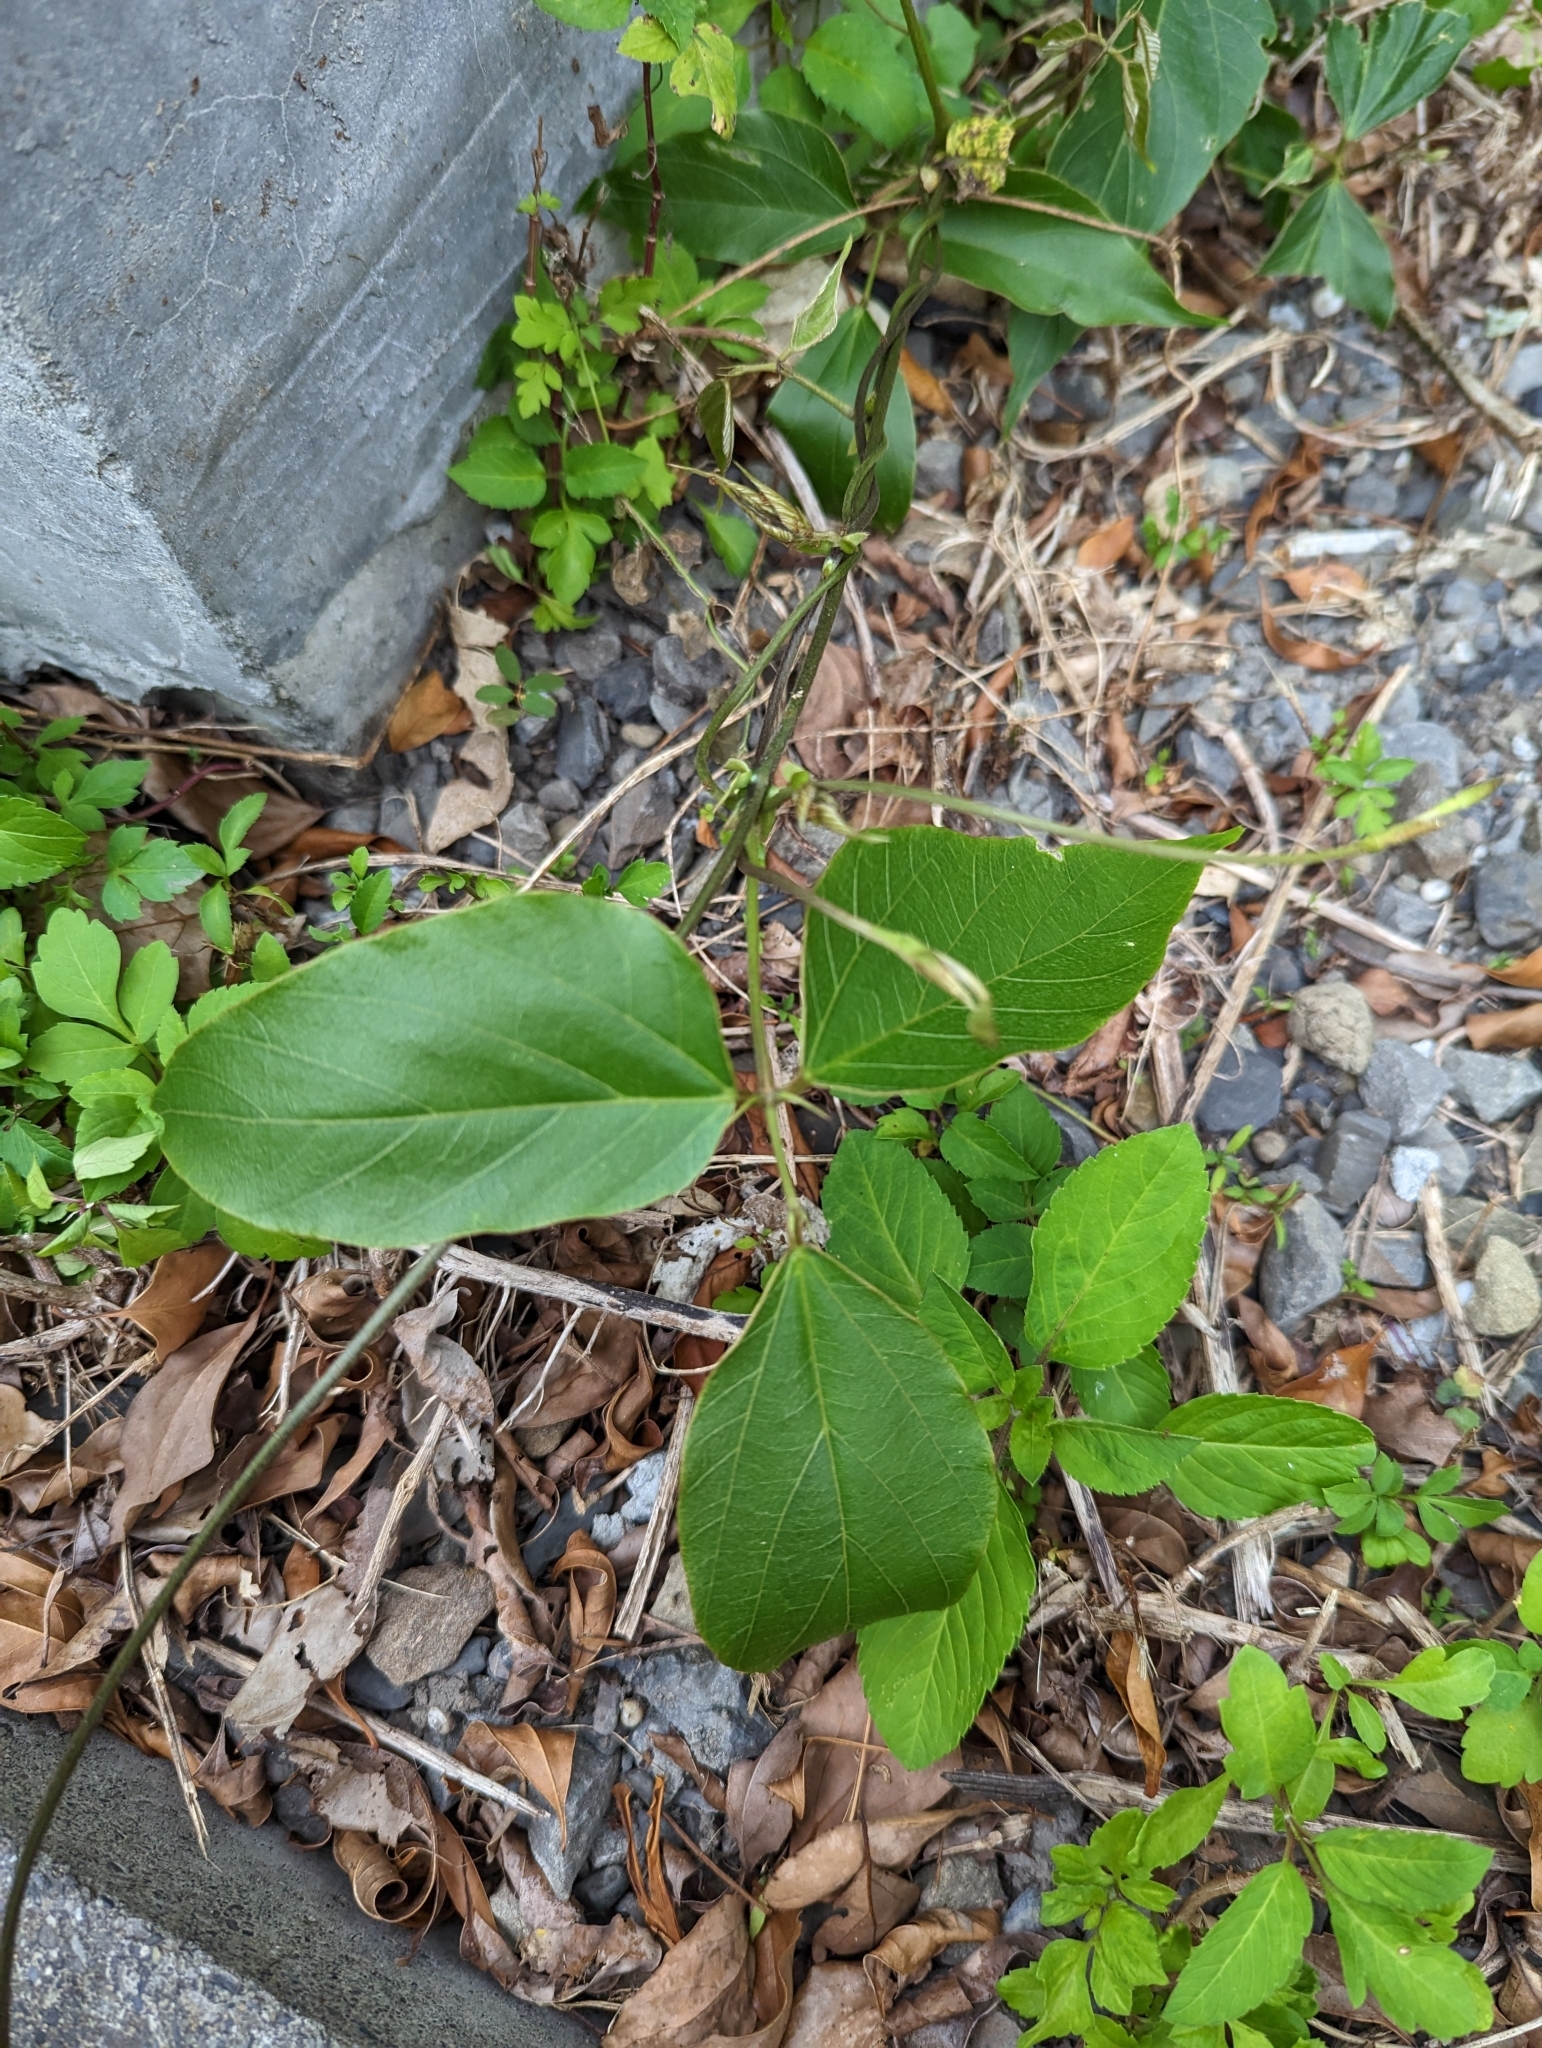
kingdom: Plantae
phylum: Tracheophyta
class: Magnoliopsida
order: Fabales
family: Fabaceae
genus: Pueraria
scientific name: Pueraria montana
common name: Kudzu
